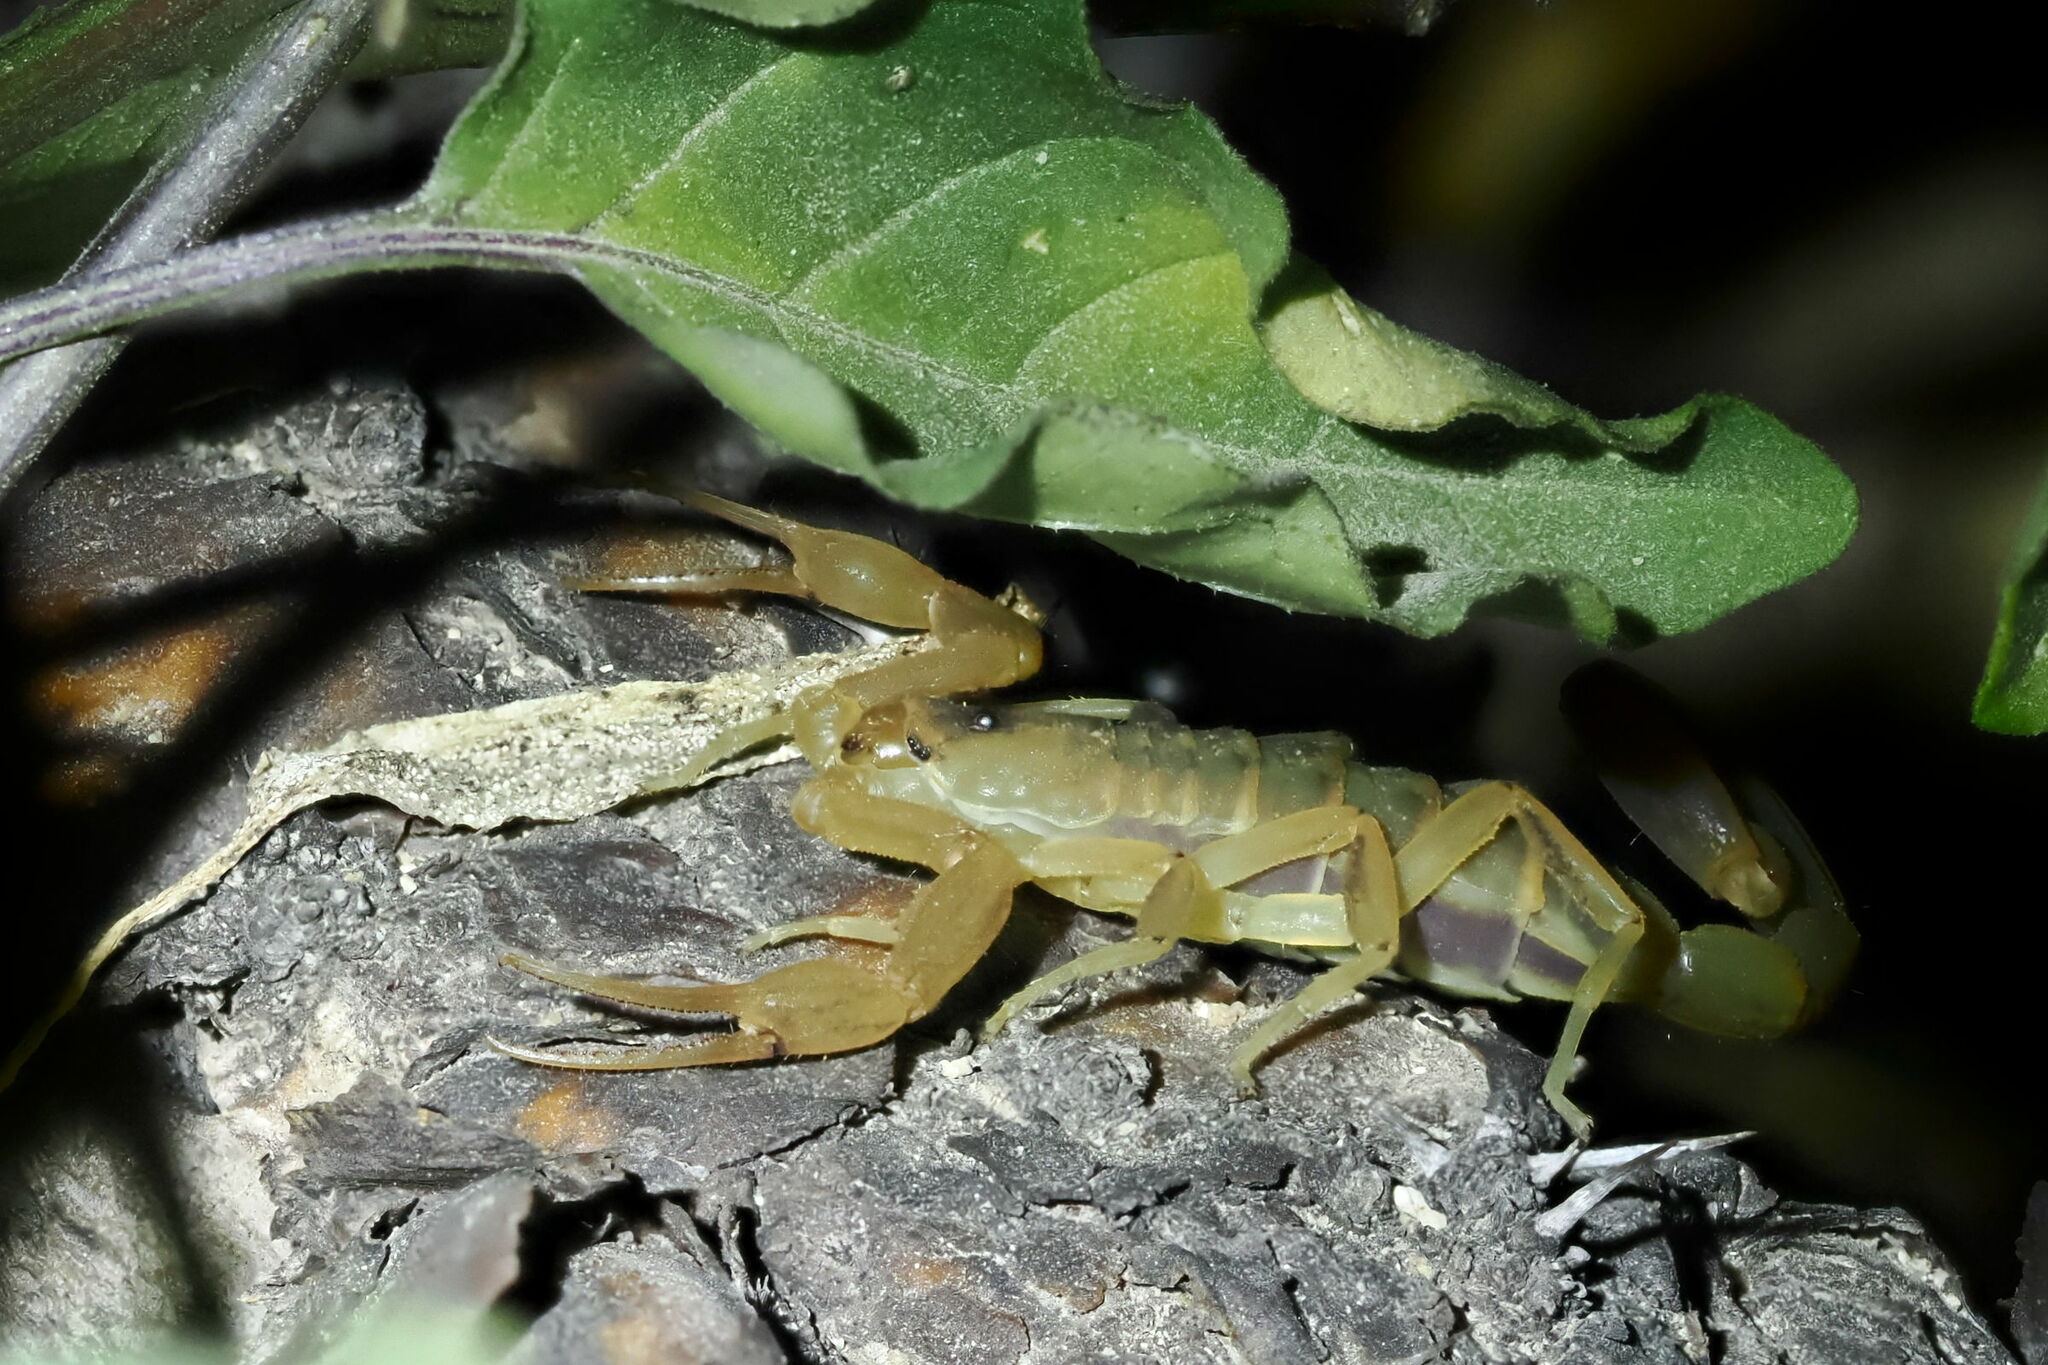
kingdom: Animalia
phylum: Arthropoda
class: Arachnida
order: Scorpiones
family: Buthidae
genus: Centruroides
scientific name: Centruroides exilicauda
